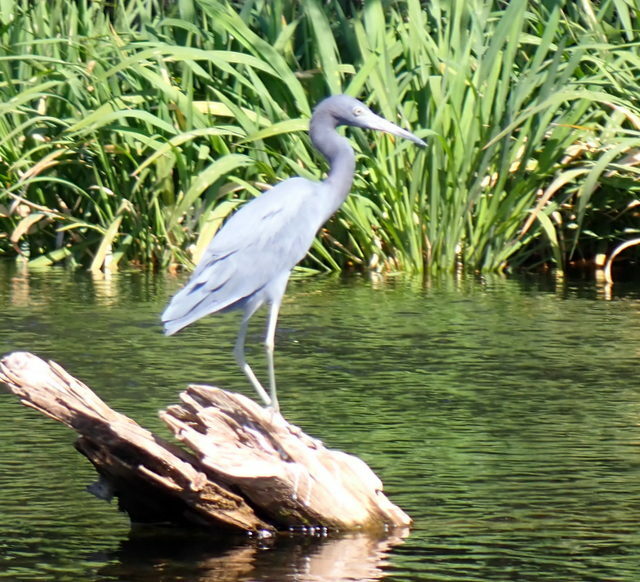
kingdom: Animalia
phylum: Chordata
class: Aves
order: Pelecaniformes
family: Ardeidae
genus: Egretta
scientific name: Egretta caerulea
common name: Little blue heron
